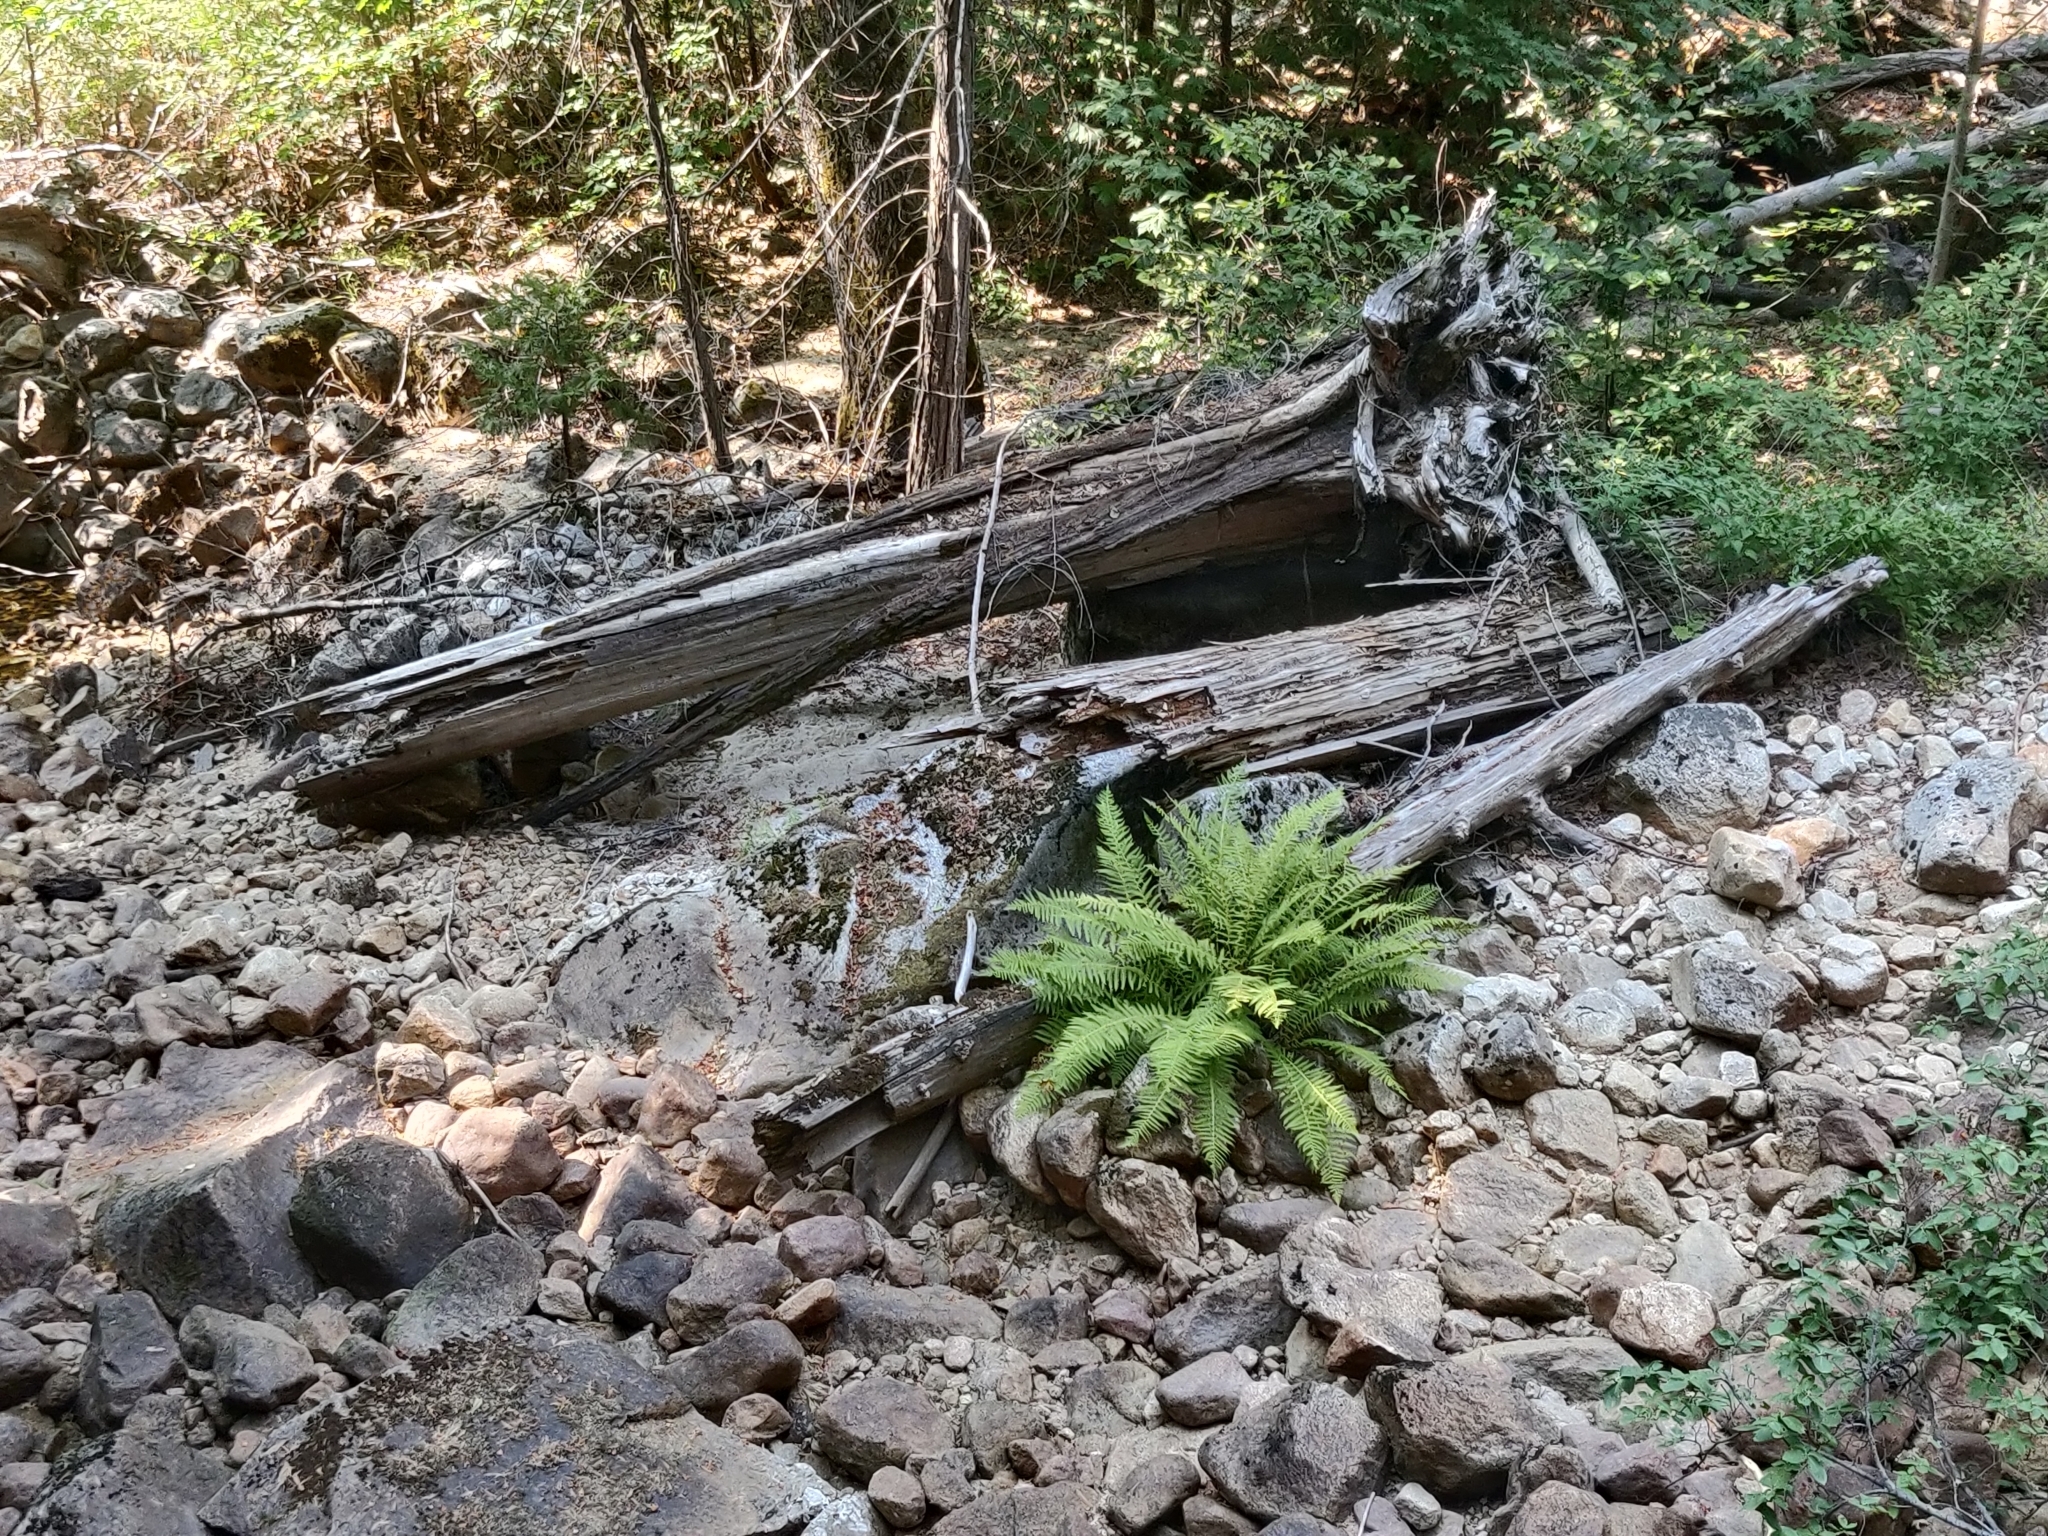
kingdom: Plantae
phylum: Tracheophyta
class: Polypodiopsida
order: Polypodiales
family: Athyriaceae
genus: Athyrium
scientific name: Athyrium filix-femina
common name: Lady fern
